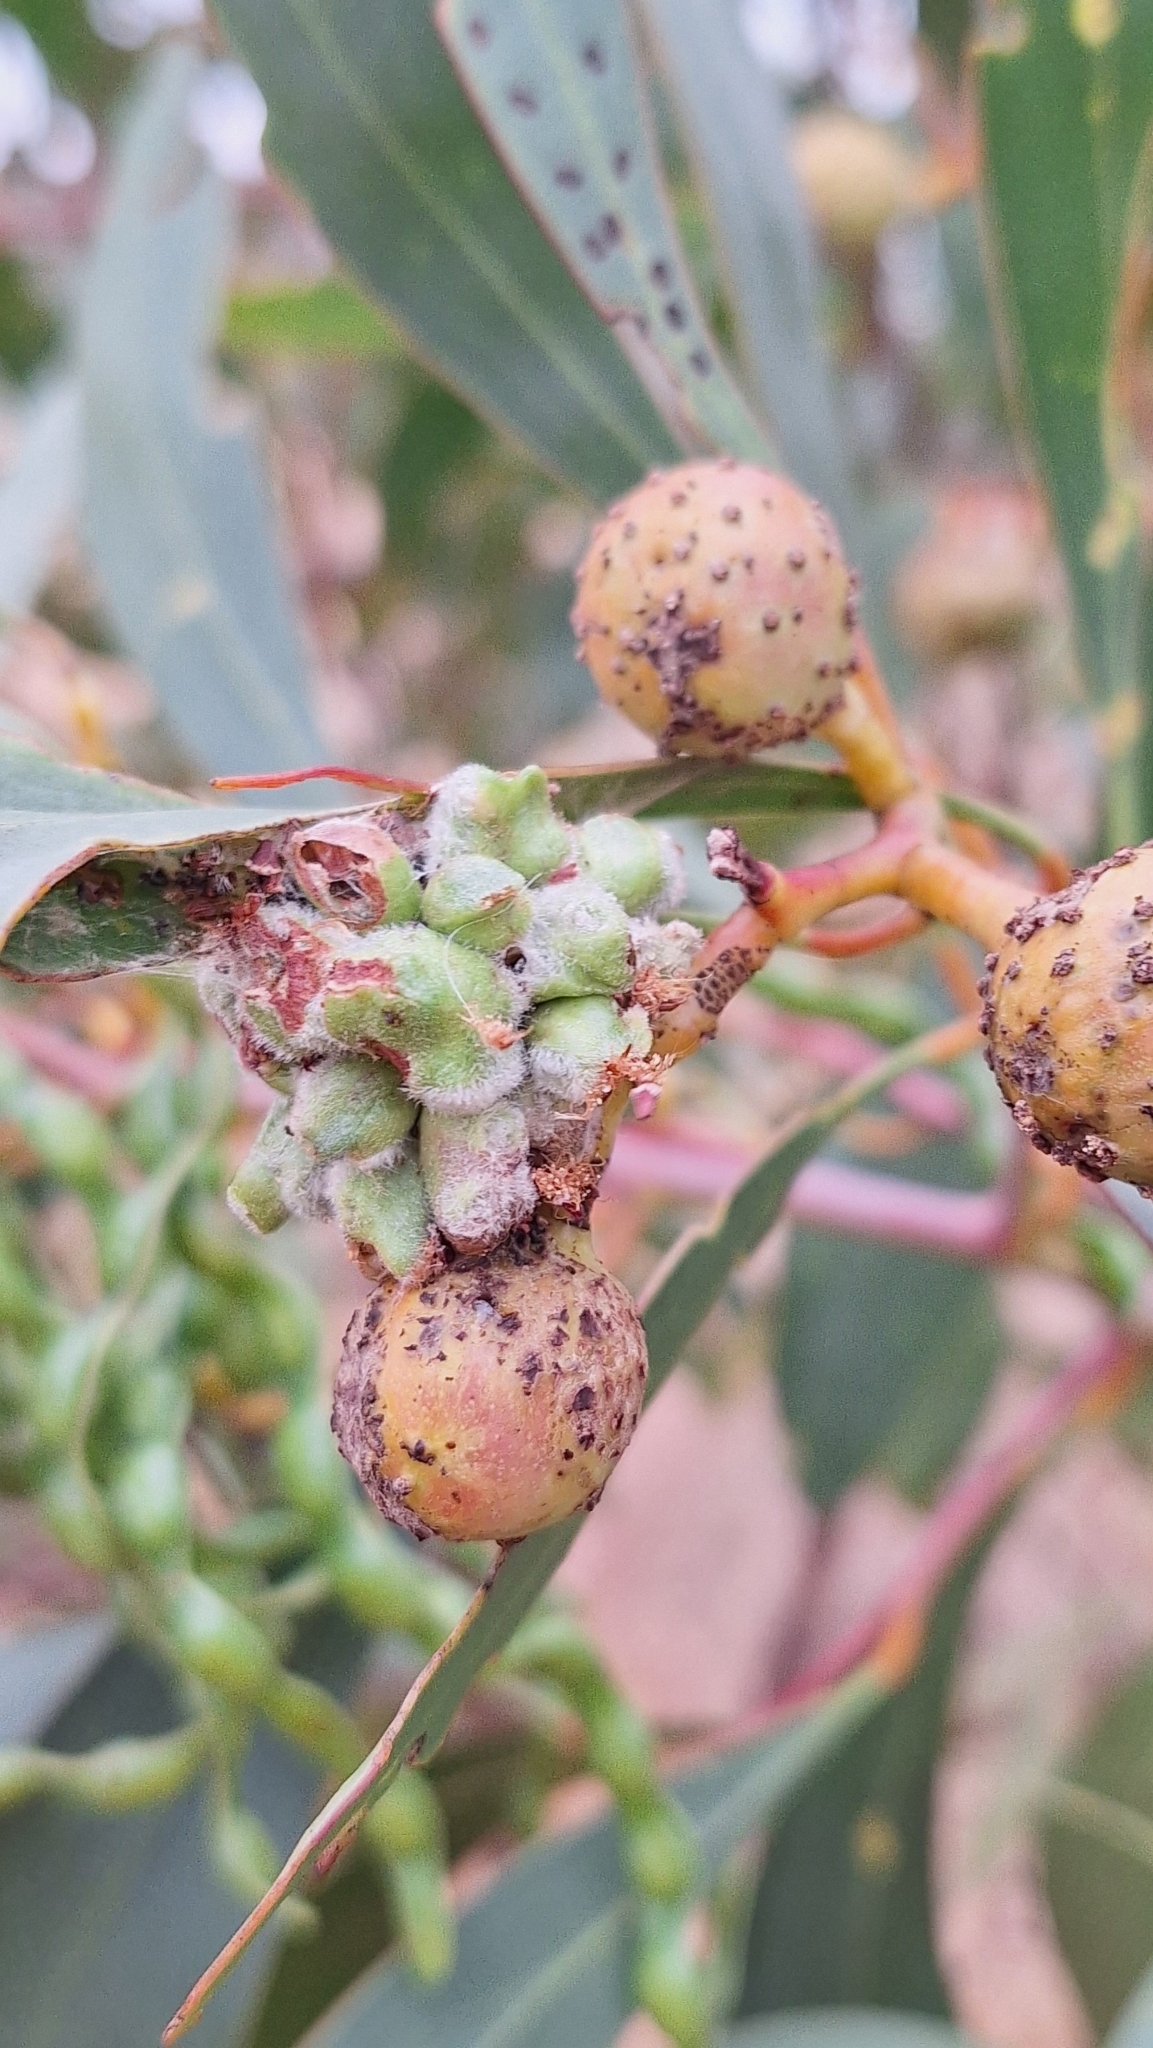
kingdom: Animalia
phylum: Arthropoda
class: Insecta
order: Hymenoptera
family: Pteromalidae
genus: Trichilogaster
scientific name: Trichilogaster signiventris
